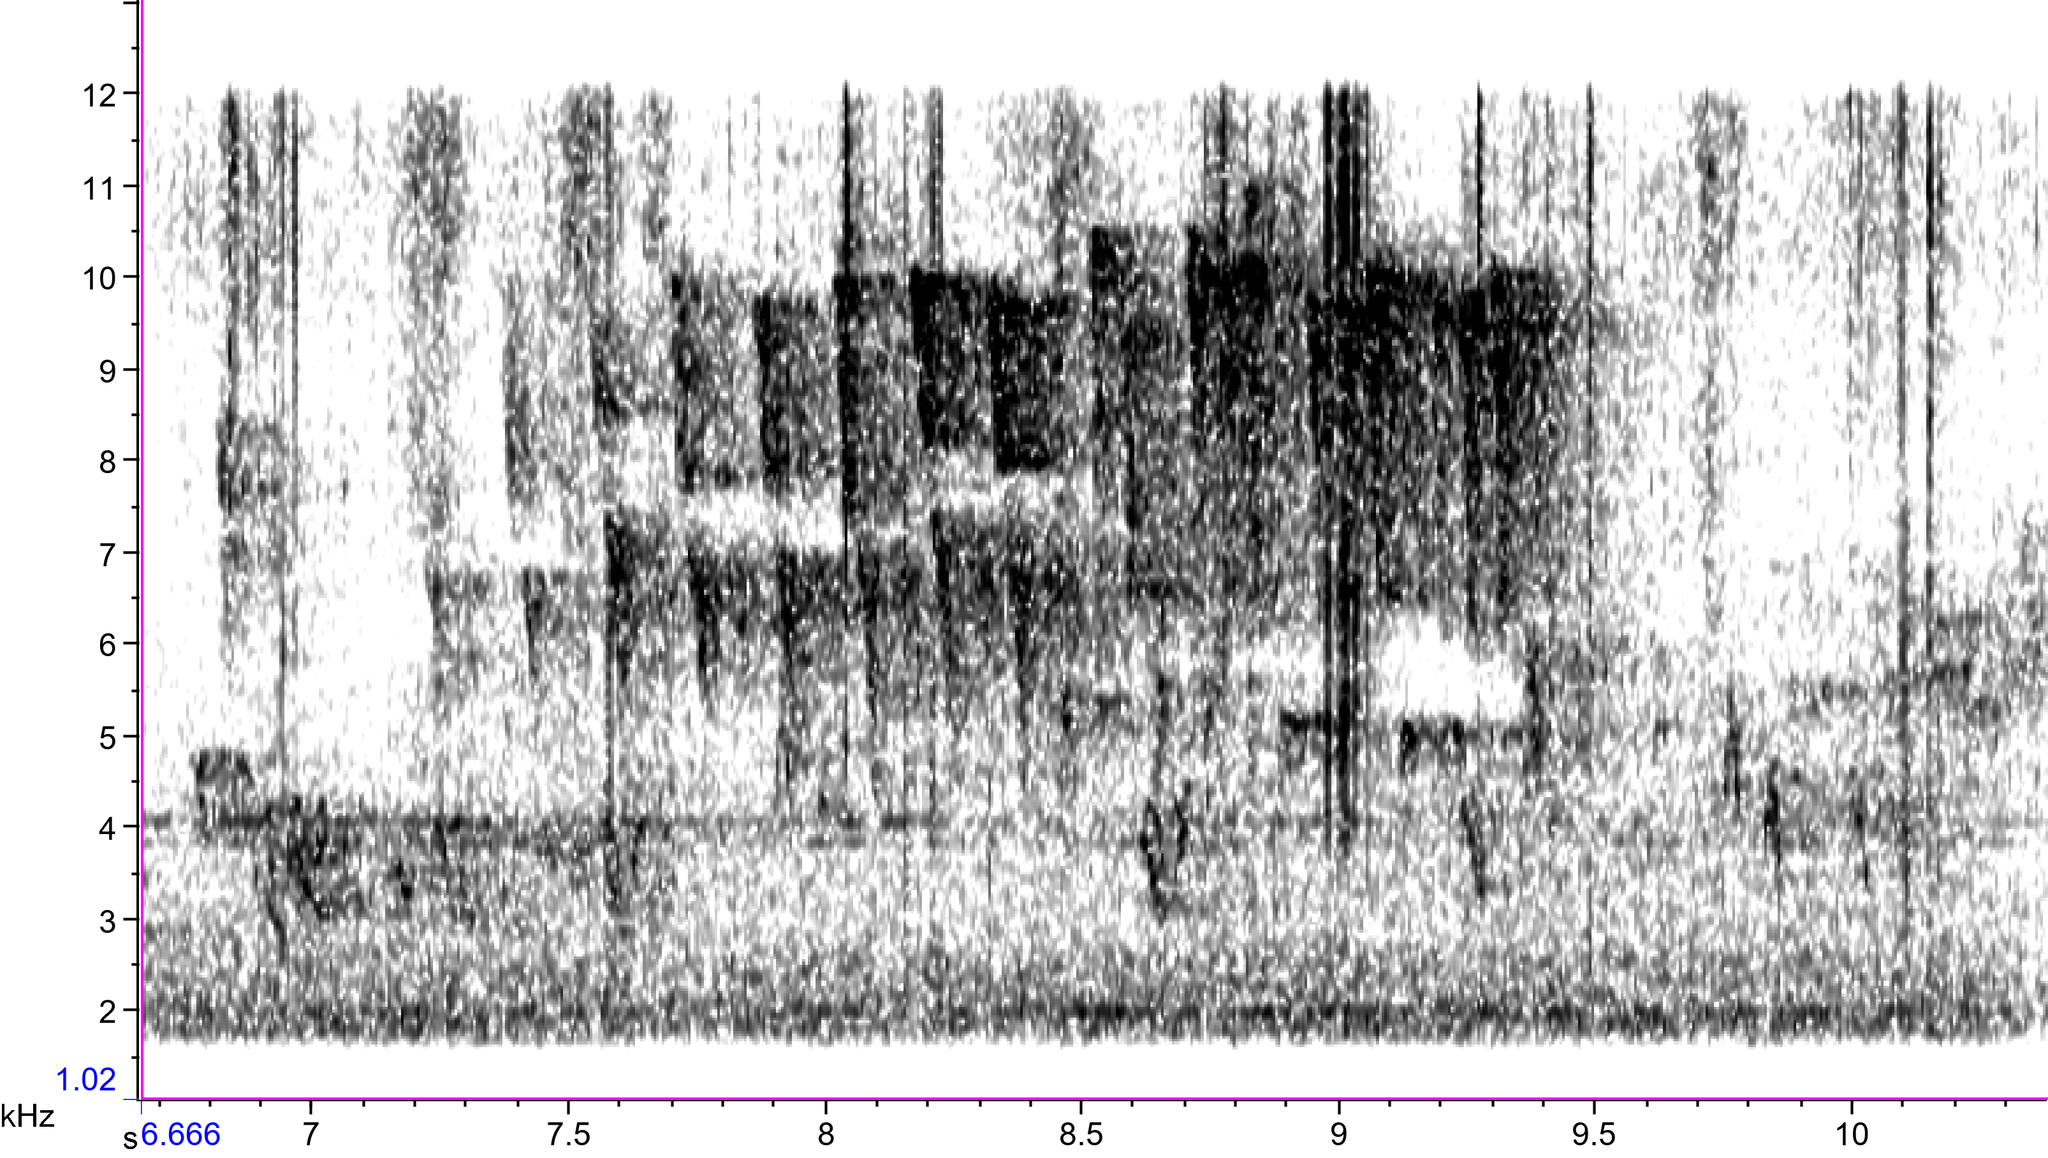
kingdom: Animalia
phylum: Chordata
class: Aves
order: Passeriformes
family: Parulidae
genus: Leiothlypis
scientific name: Leiothlypis peregrina
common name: Tennessee warbler
